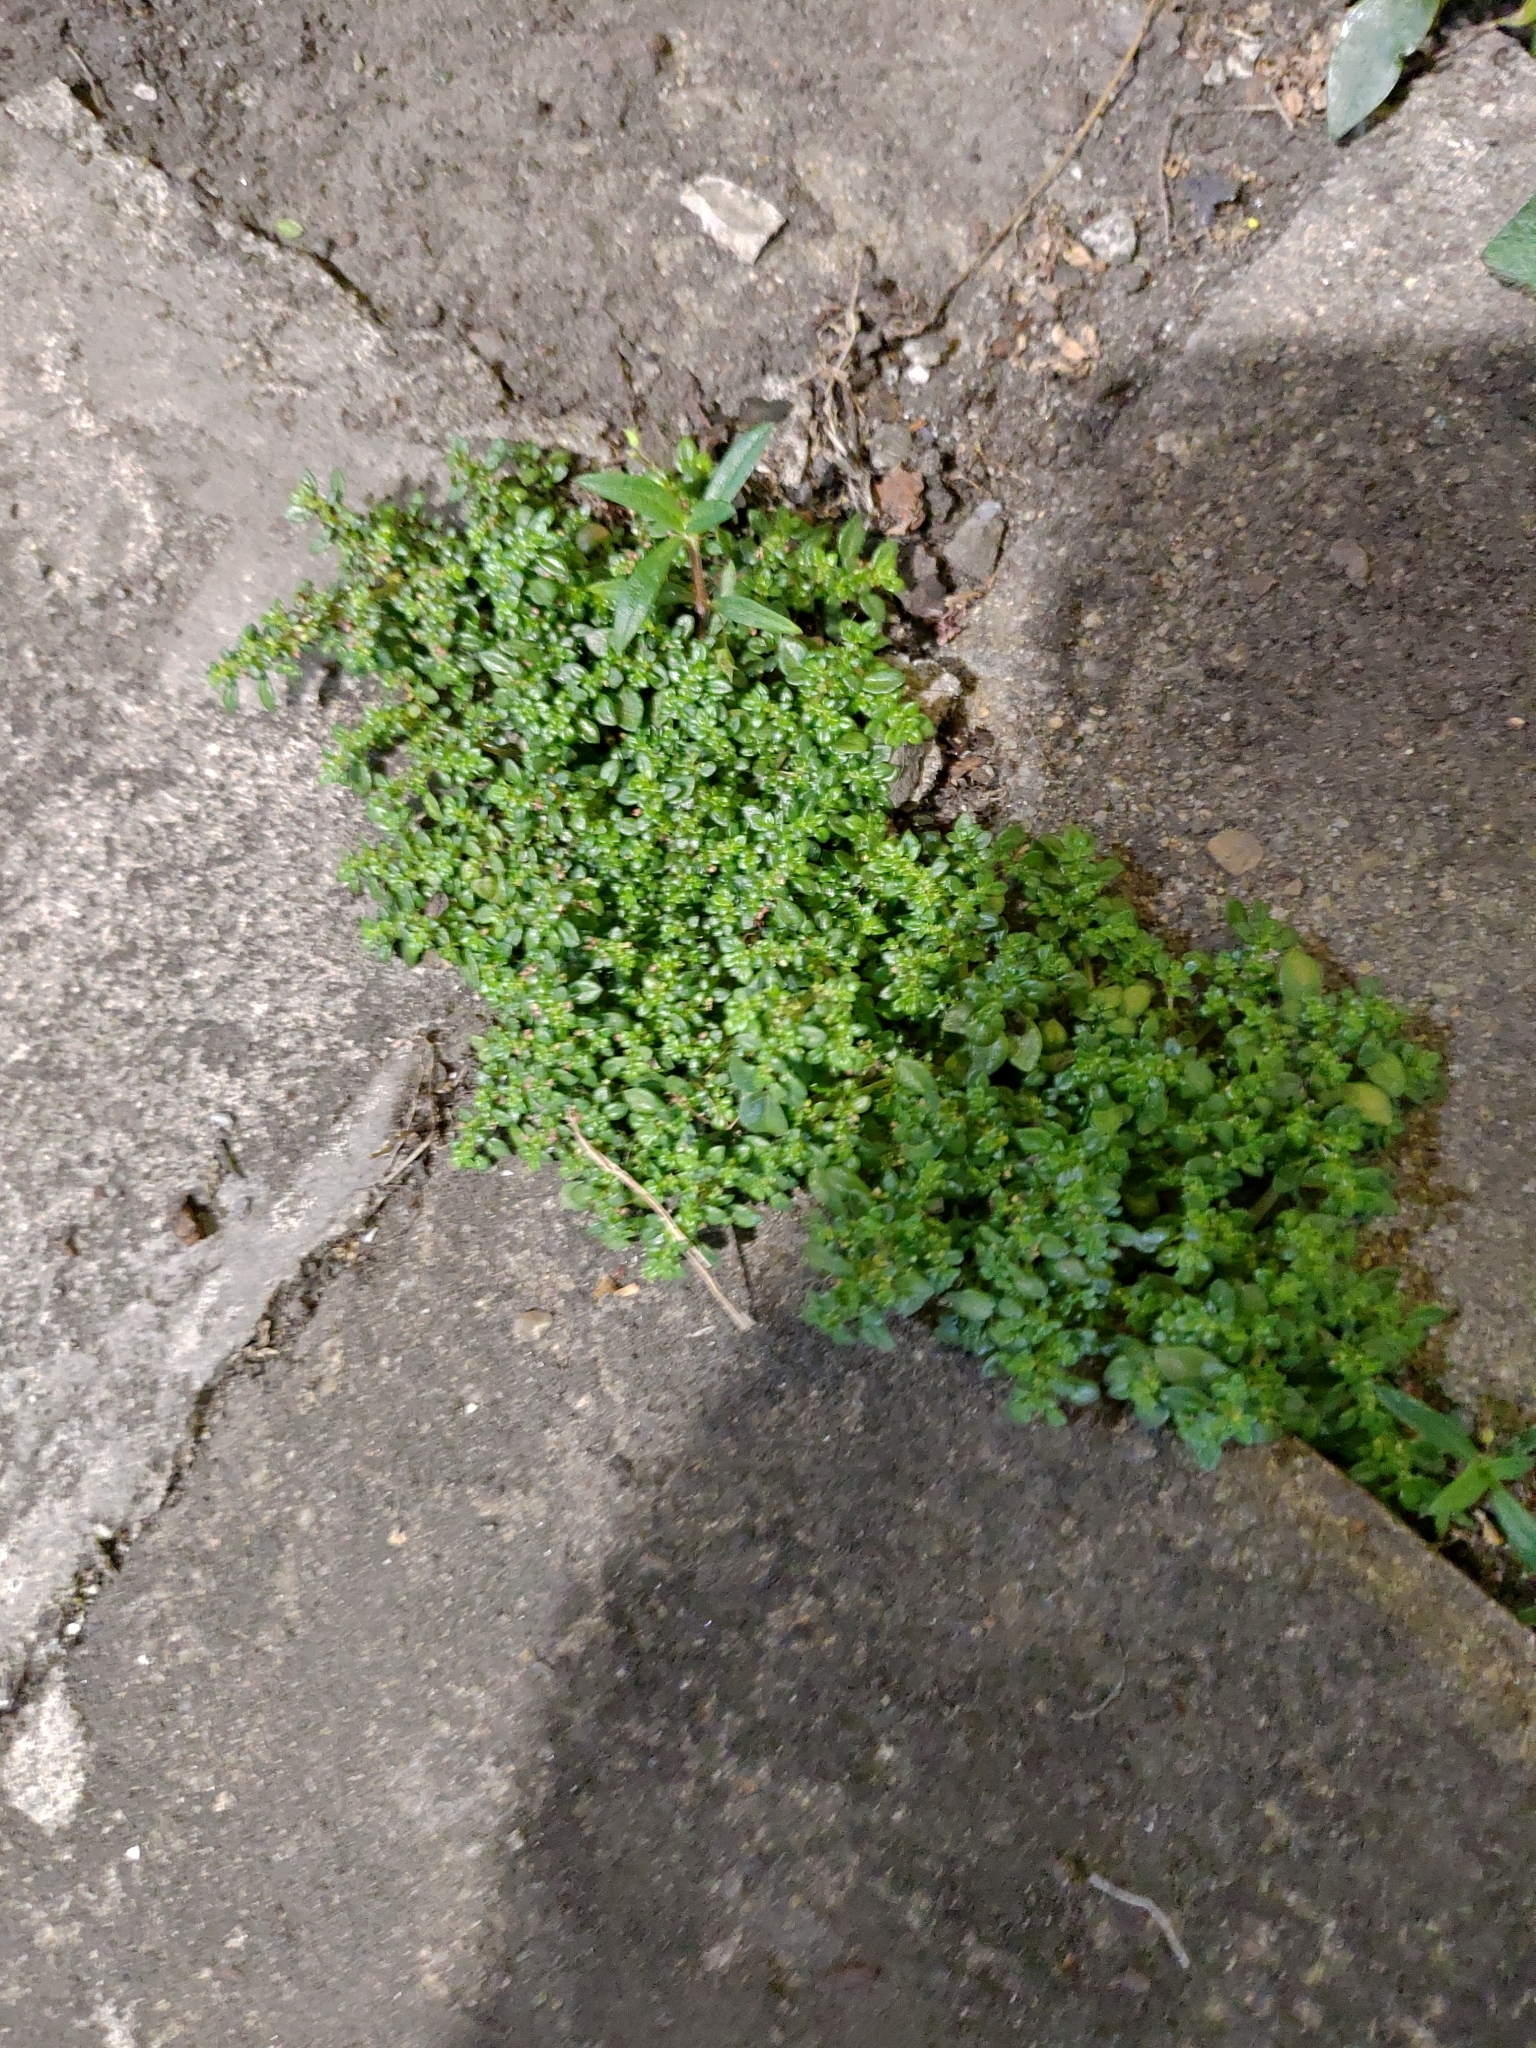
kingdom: Plantae
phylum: Tracheophyta
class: Magnoliopsida
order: Rosales
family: Urticaceae
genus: Pilea
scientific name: Pilea microphylla
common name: Artillery-plant
